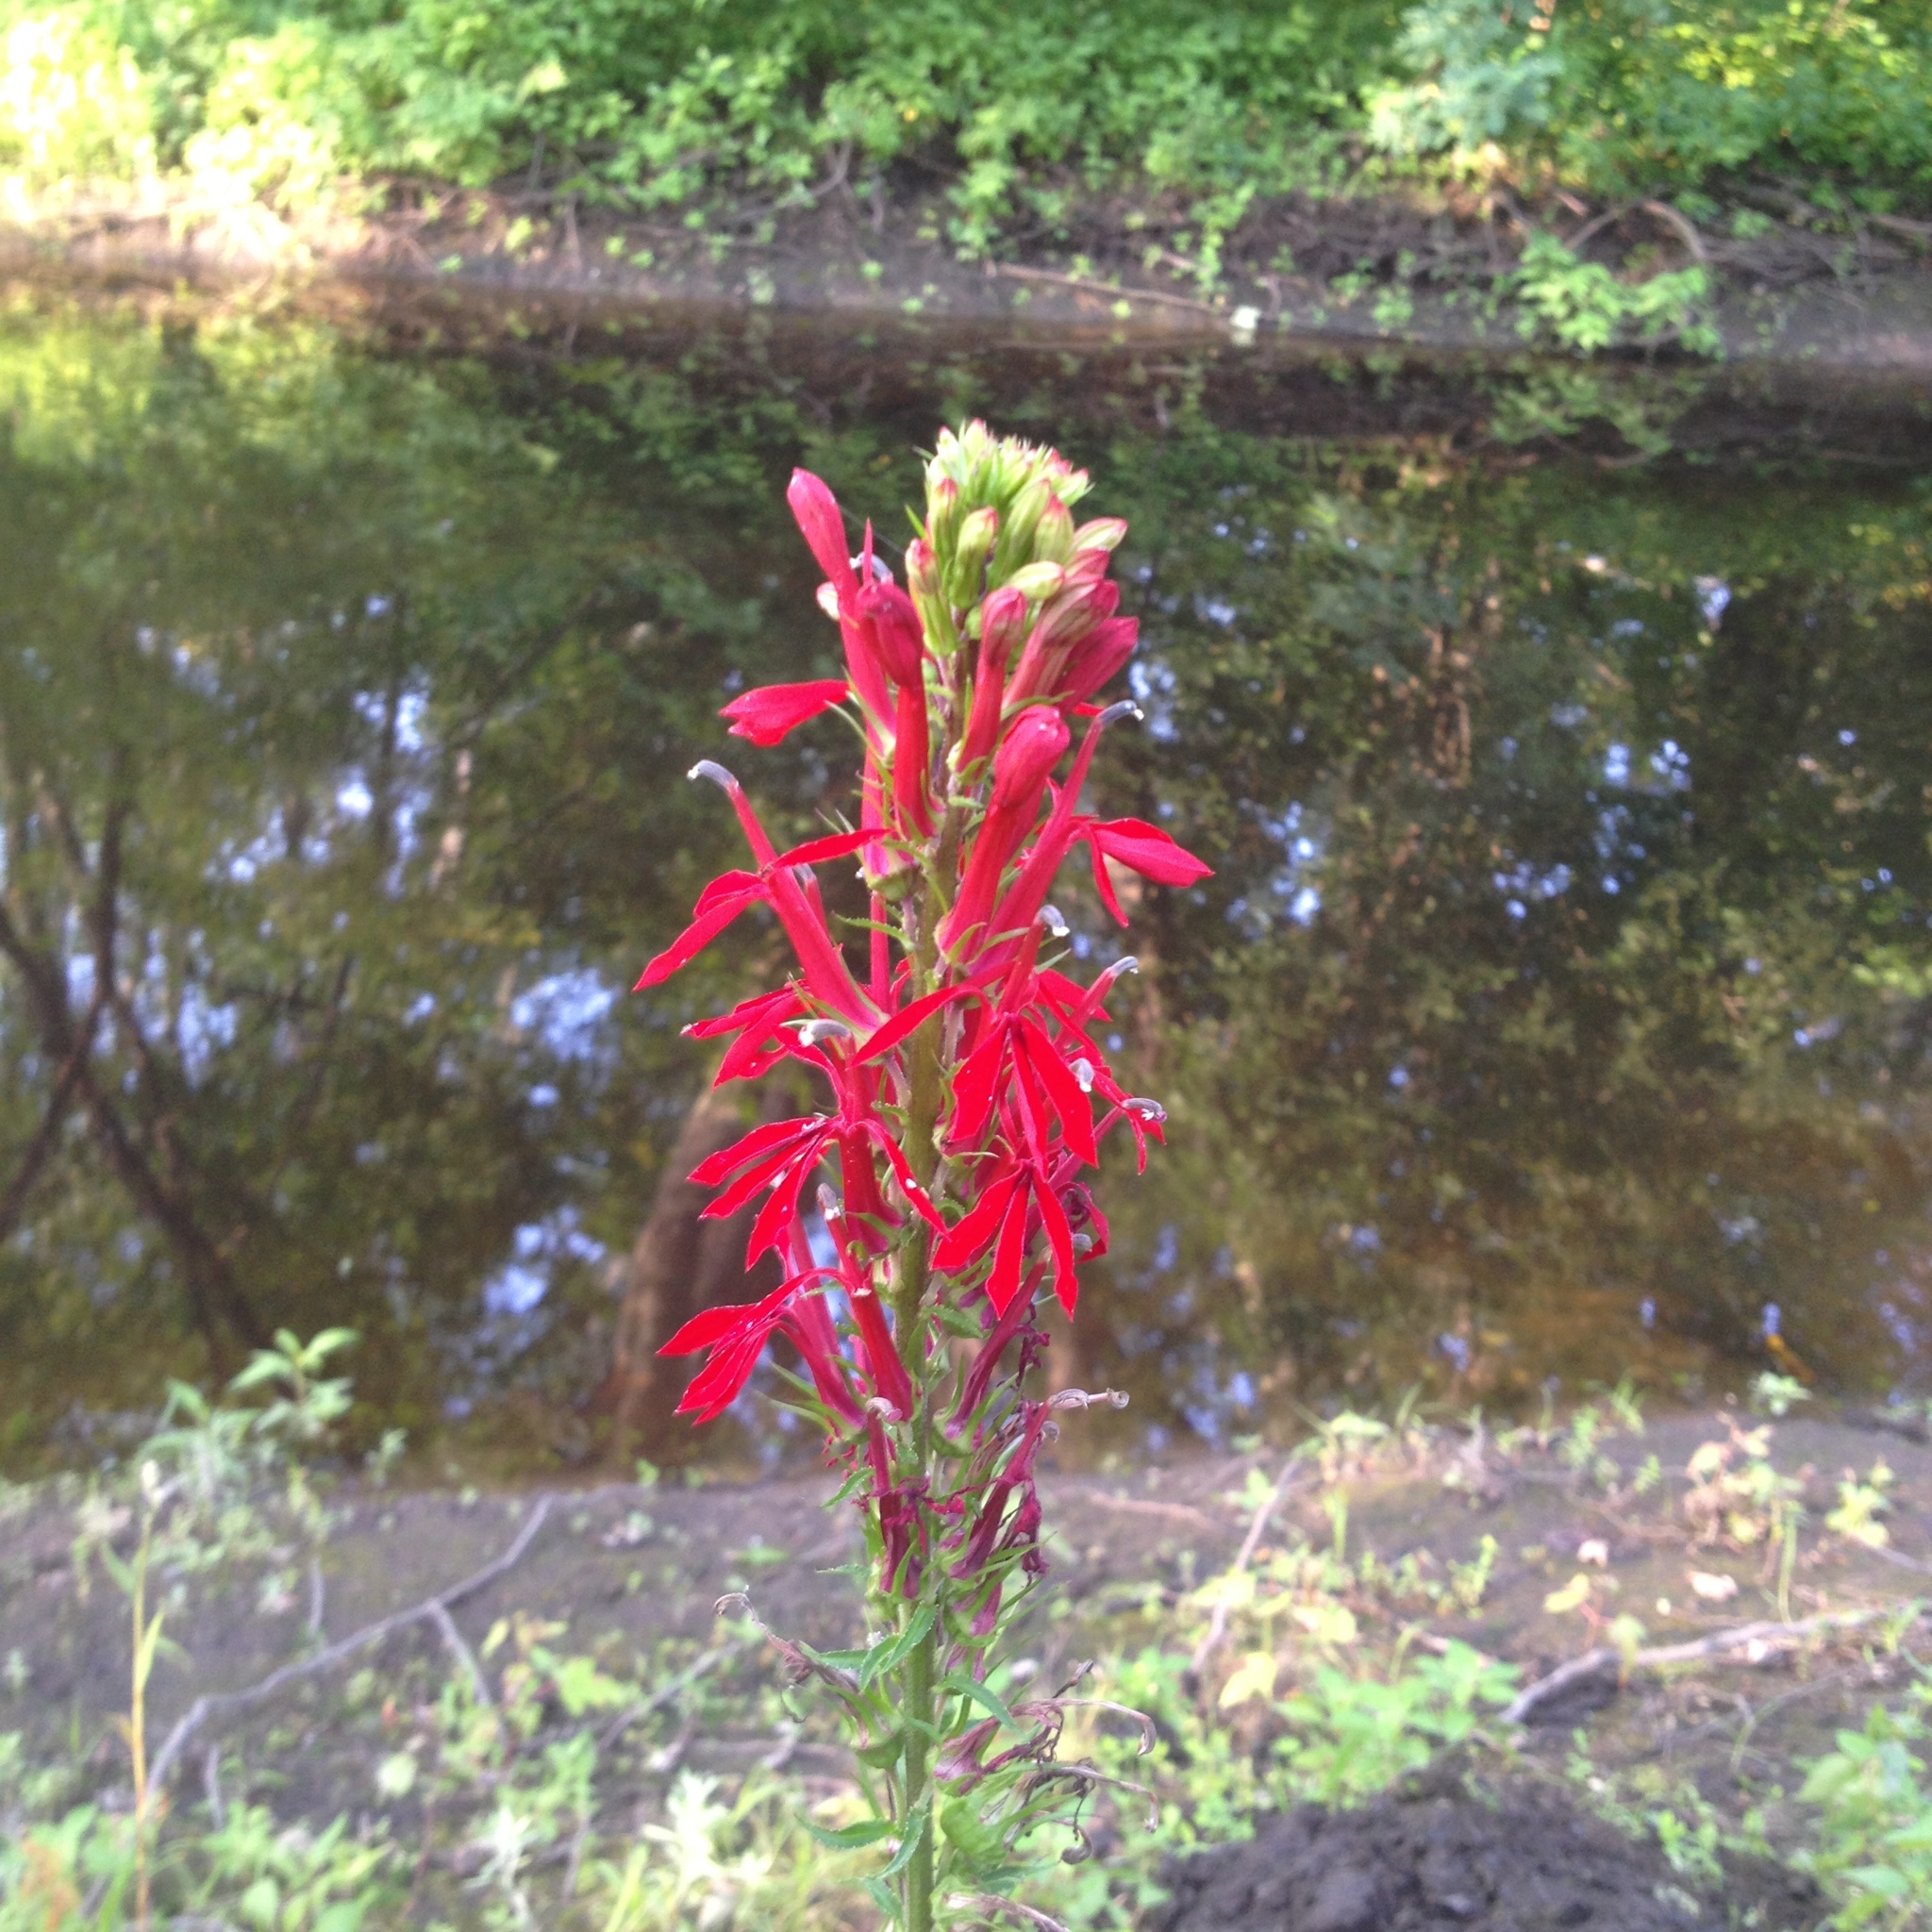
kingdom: Plantae
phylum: Tracheophyta
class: Magnoliopsida
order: Asterales
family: Campanulaceae
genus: Lobelia
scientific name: Lobelia cardinalis
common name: Cardinal flower
